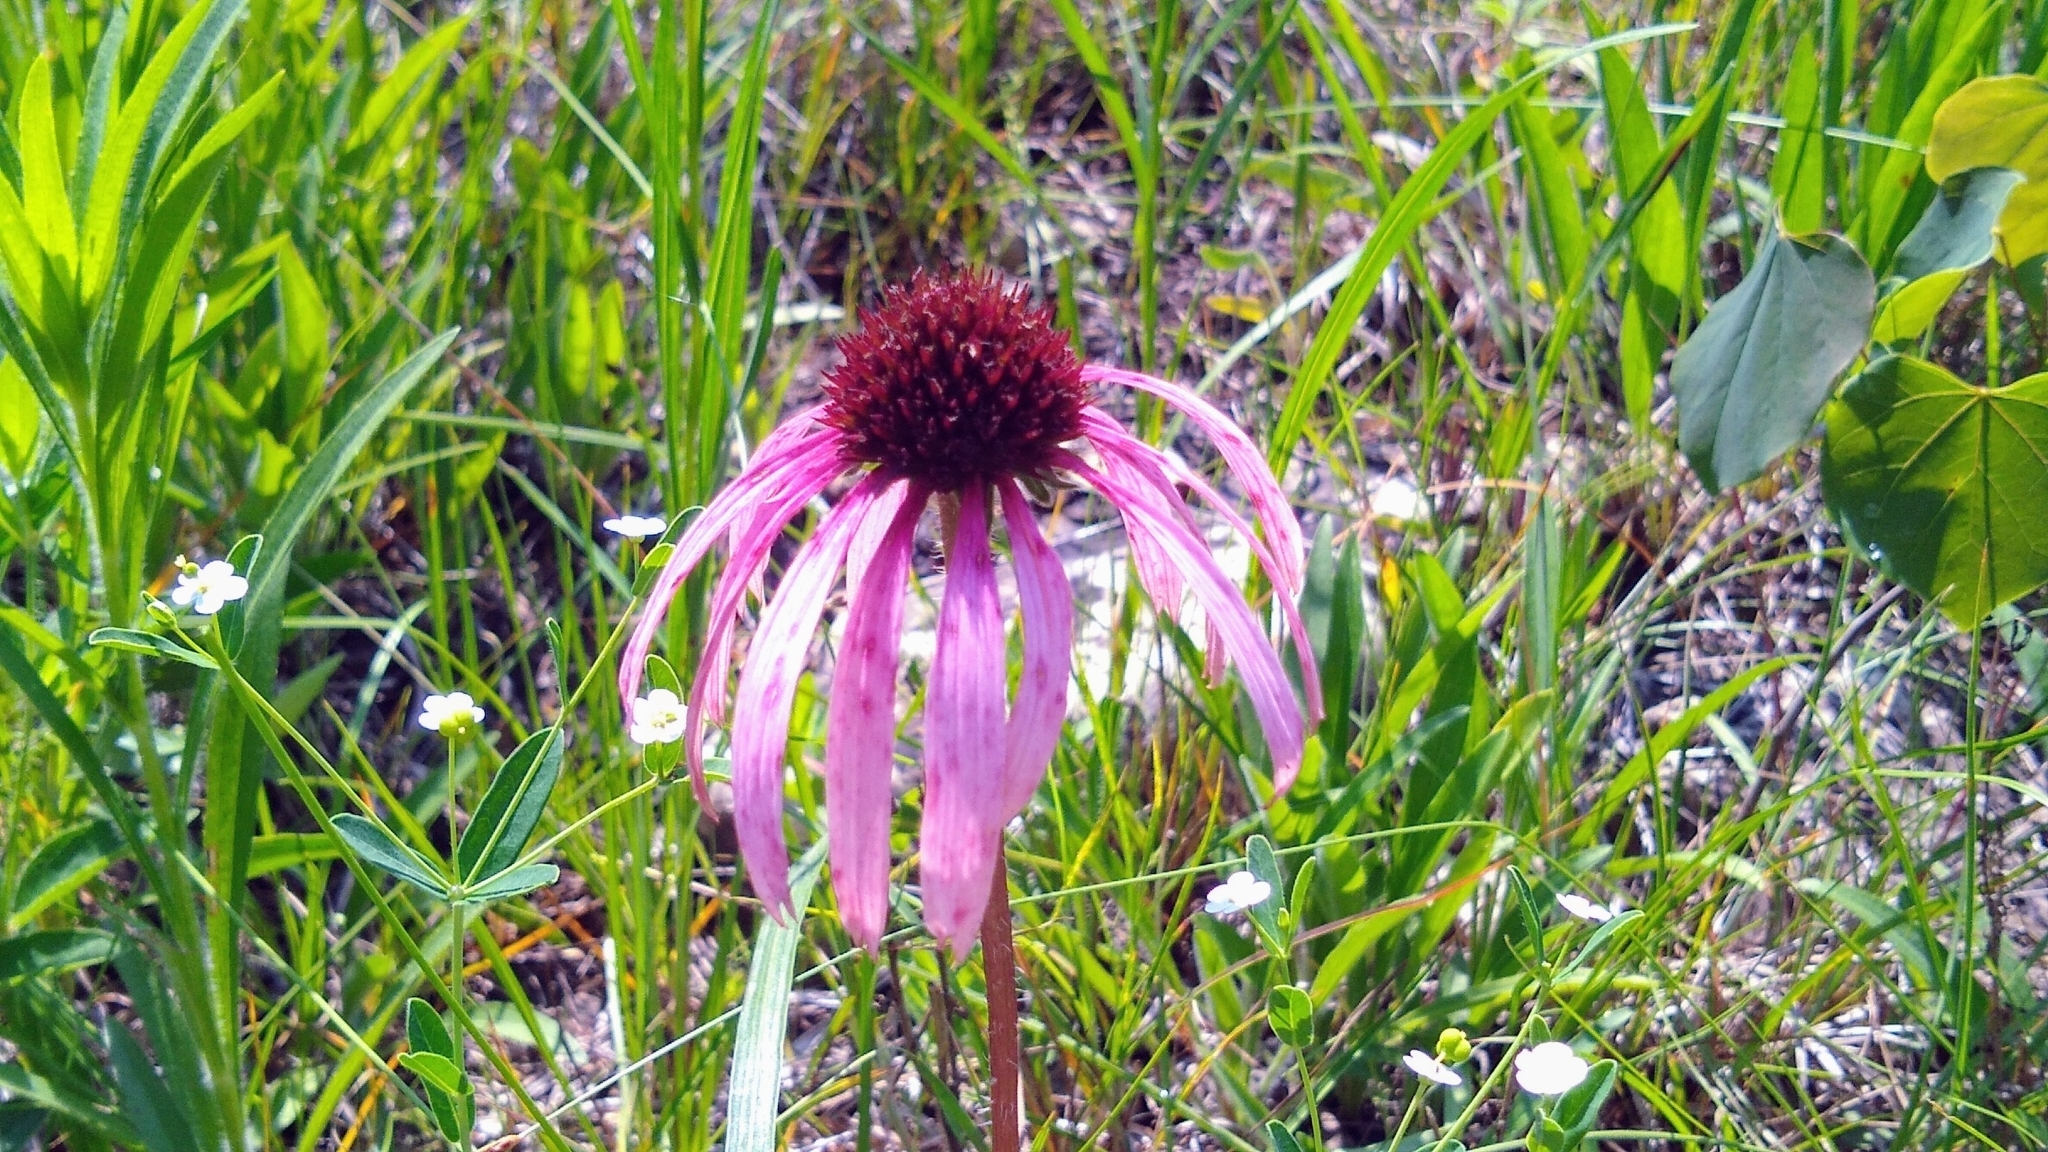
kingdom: Plantae
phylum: Tracheophyta
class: Magnoliopsida
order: Asterales
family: Asteraceae
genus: Echinacea
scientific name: Echinacea simulata
